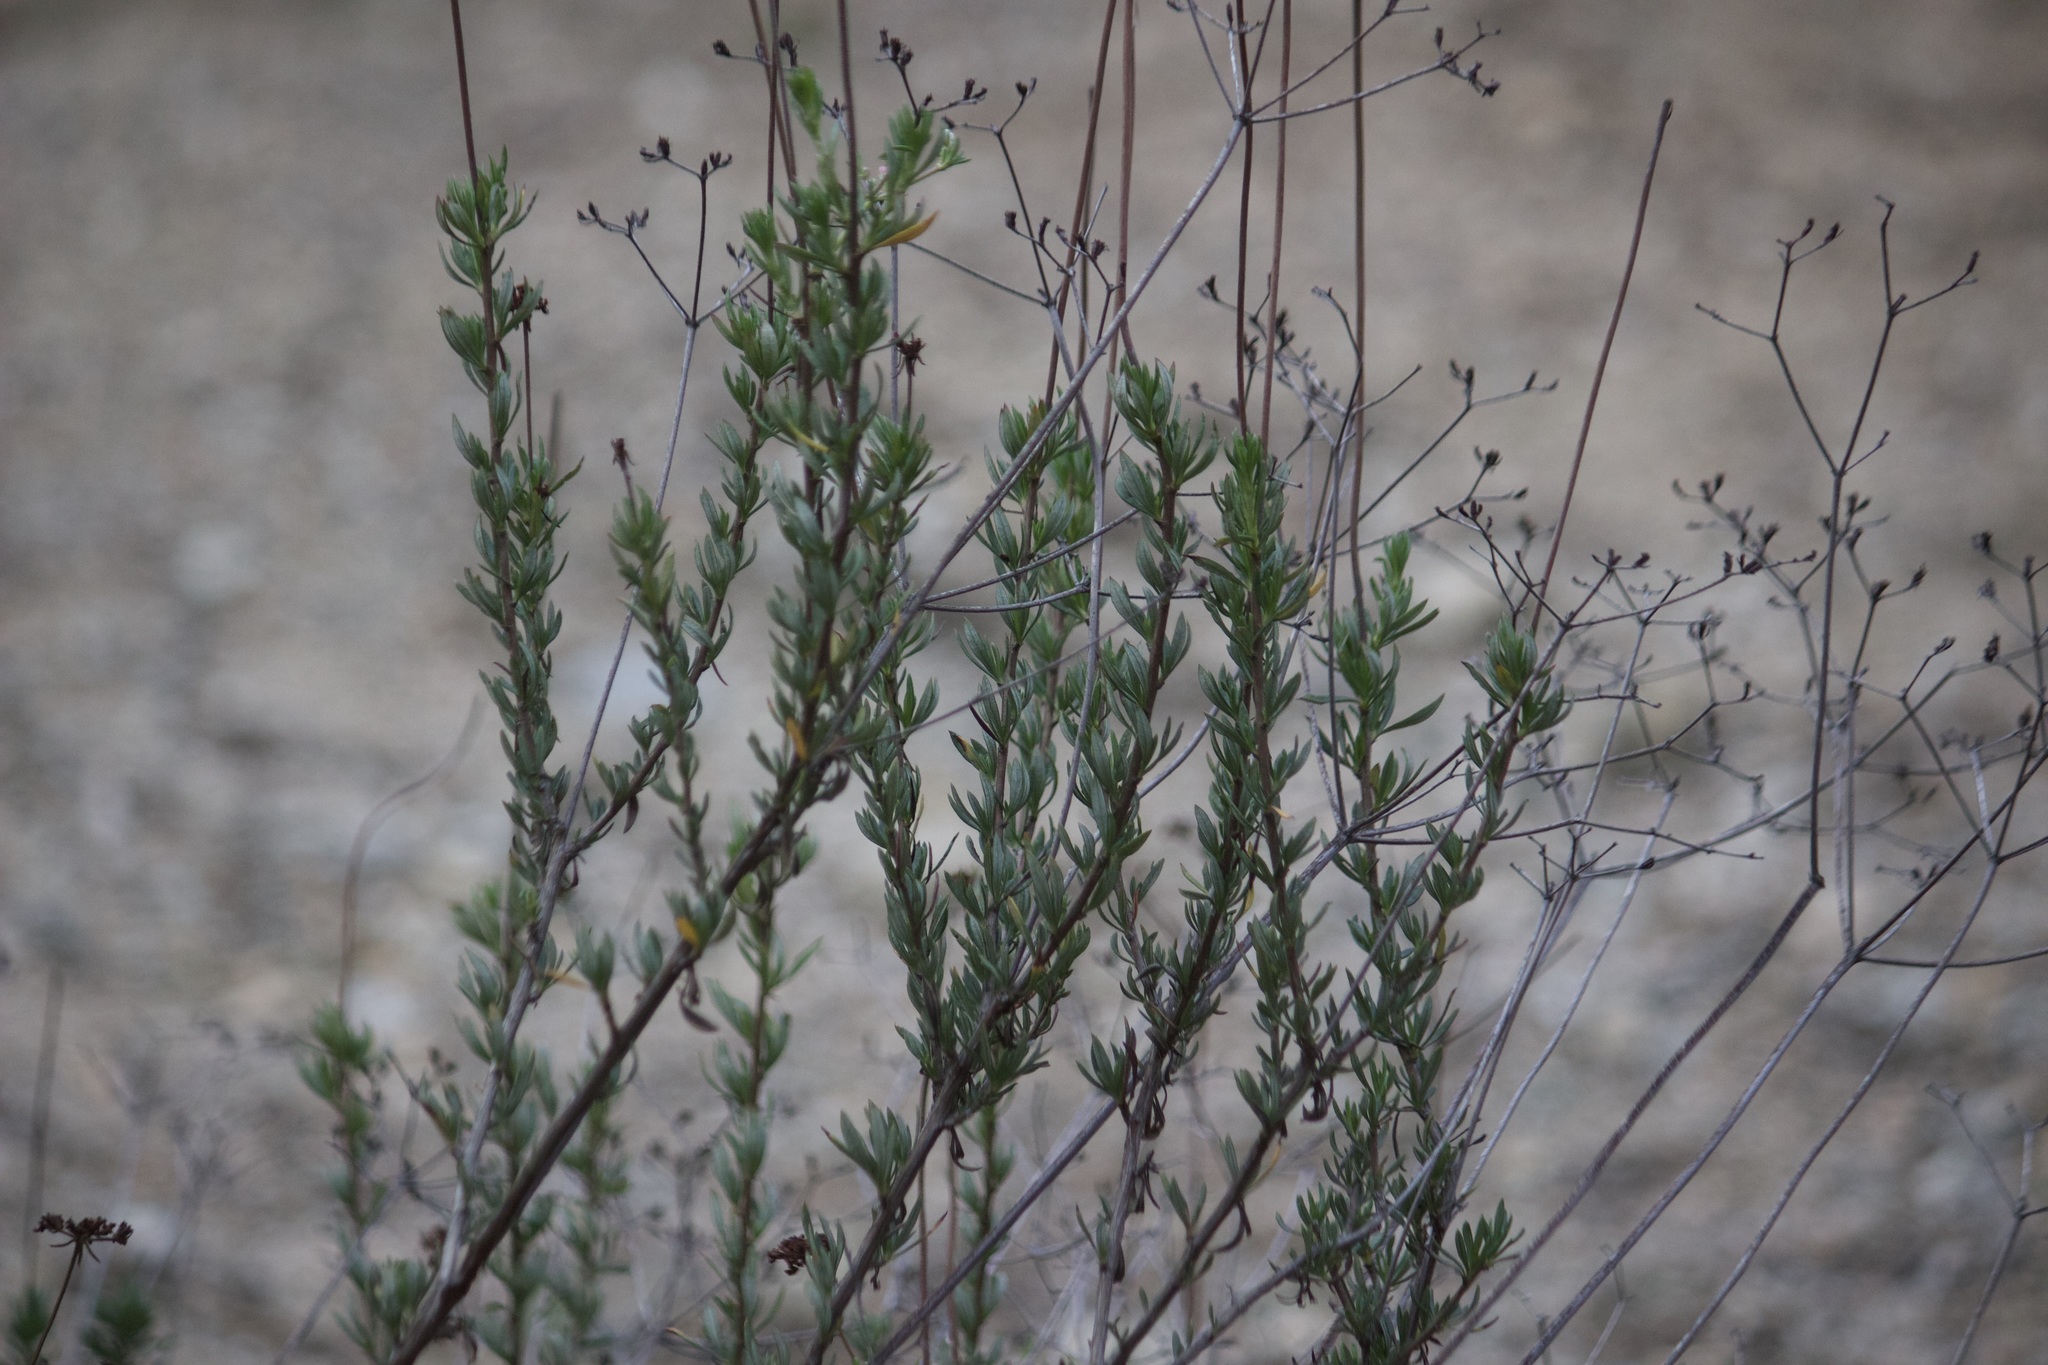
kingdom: Plantae
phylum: Tracheophyta
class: Magnoliopsida
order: Caryophyllales
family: Polygonaceae
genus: Eriogonum
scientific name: Eriogonum fasciculatum
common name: California wild buckwheat
